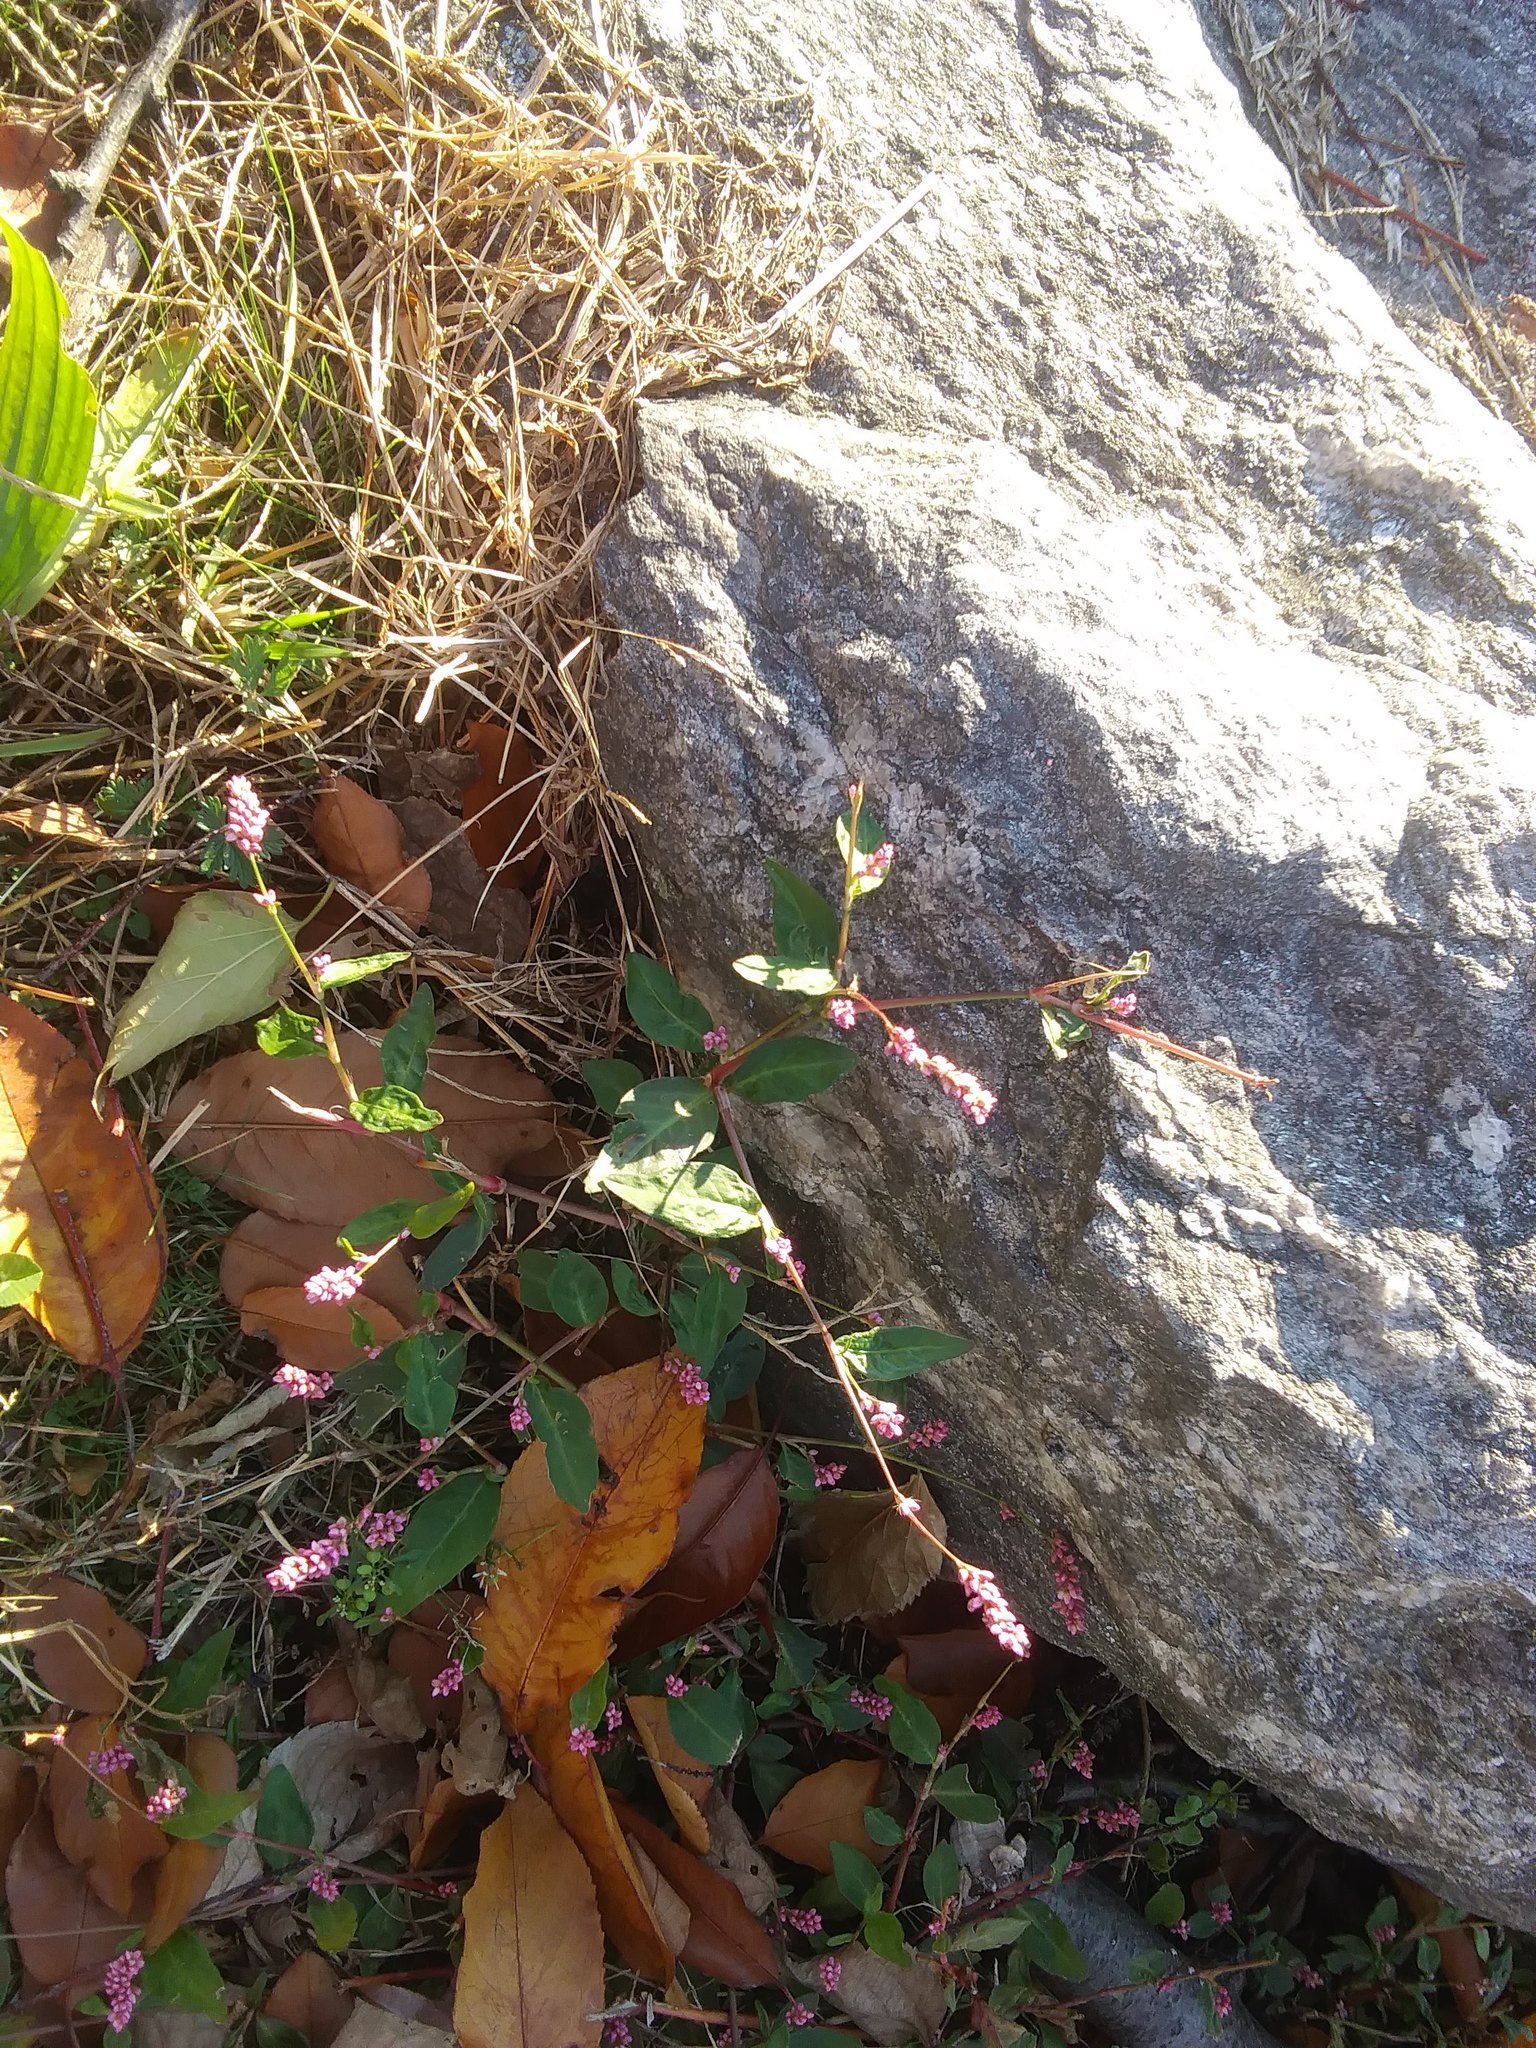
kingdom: Plantae
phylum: Tracheophyta
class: Magnoliopsida
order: Caryophyllales
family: Polygonaceae
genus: Persicaria
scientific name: Persicaria longiseta
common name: Bristly lady's-thumb
